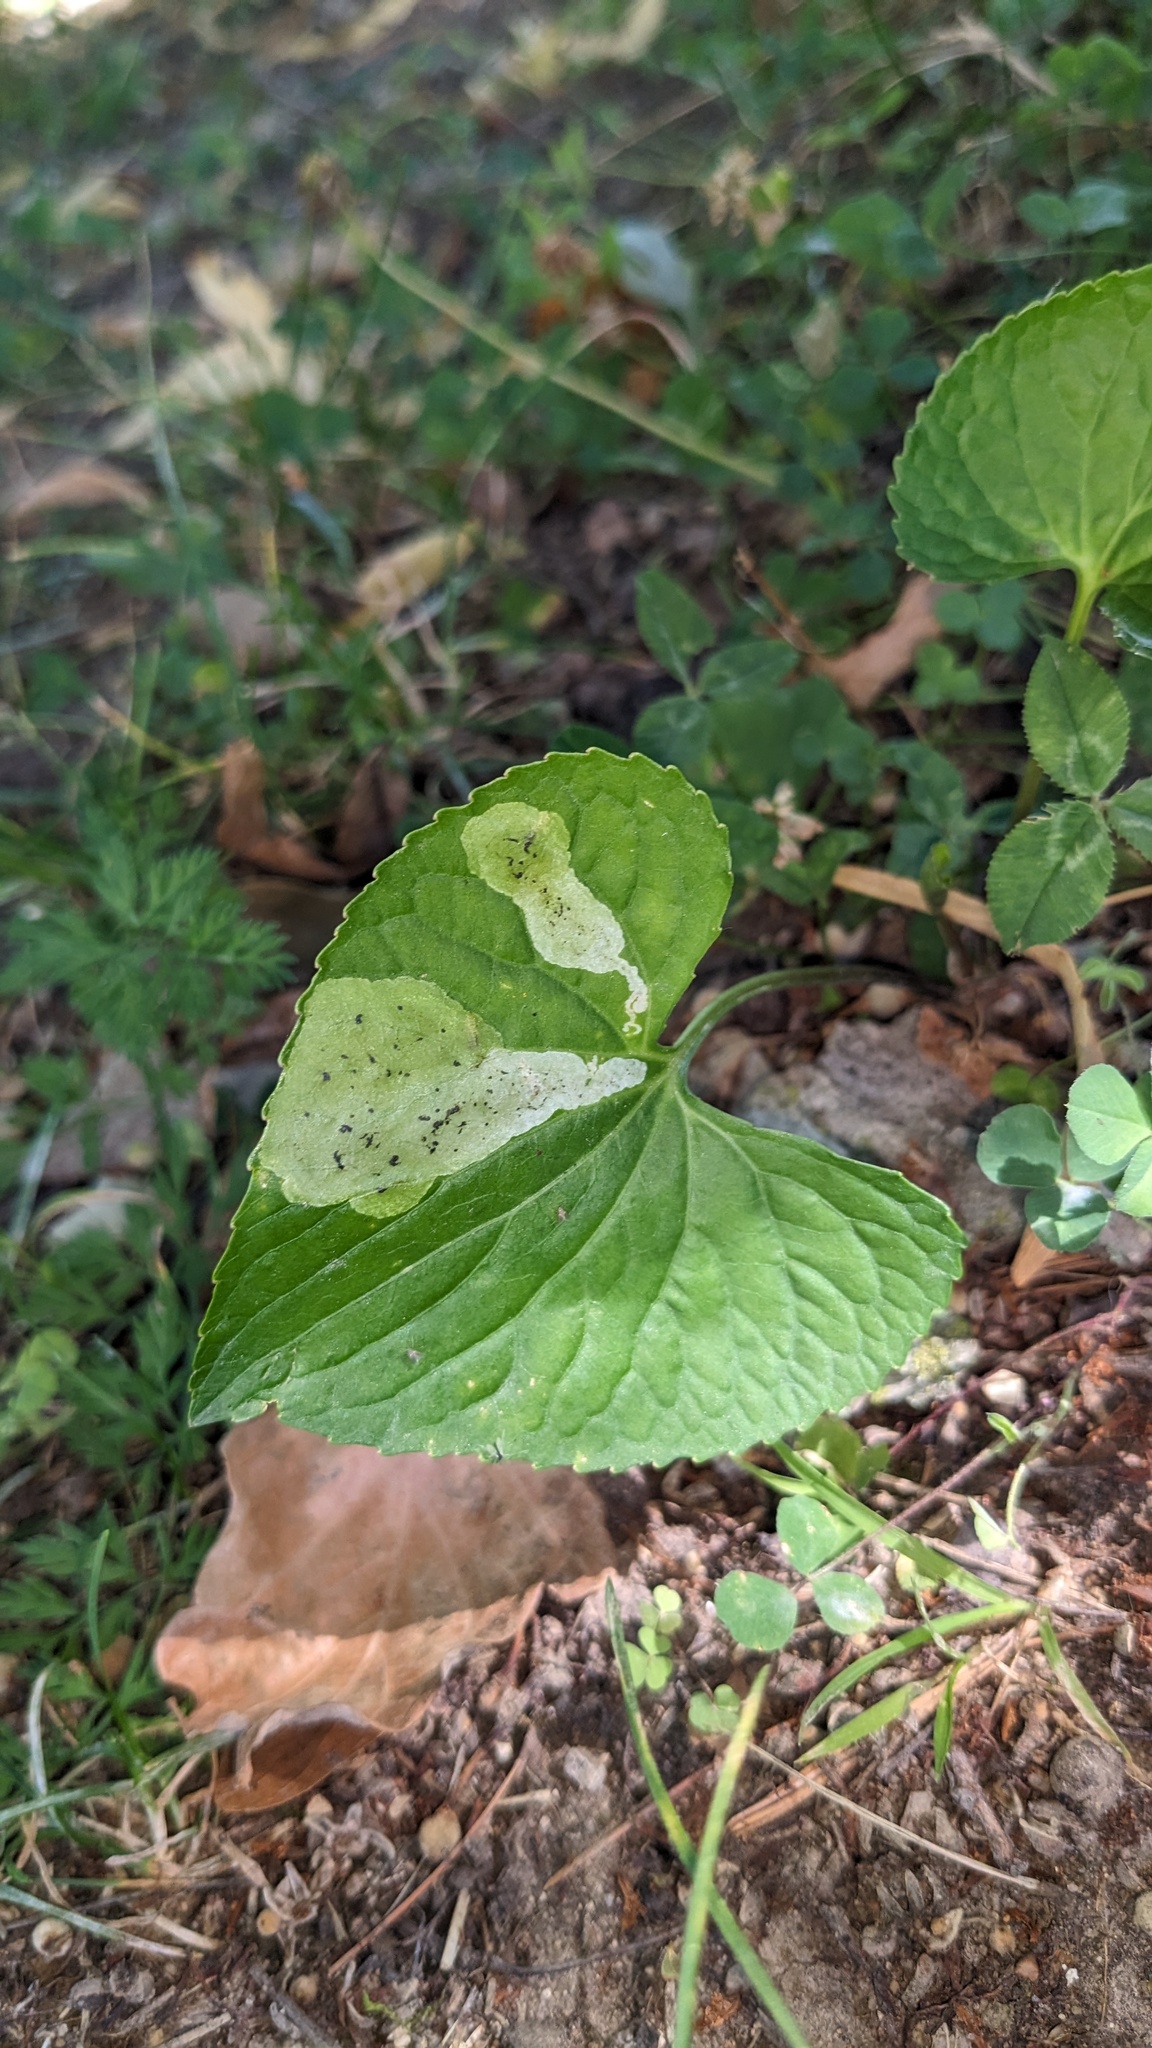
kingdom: Animalia
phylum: Arthropoda
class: Insecta
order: Diptera
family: Agromyzidae
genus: Liriomyza
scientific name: Liriomyza violivora
